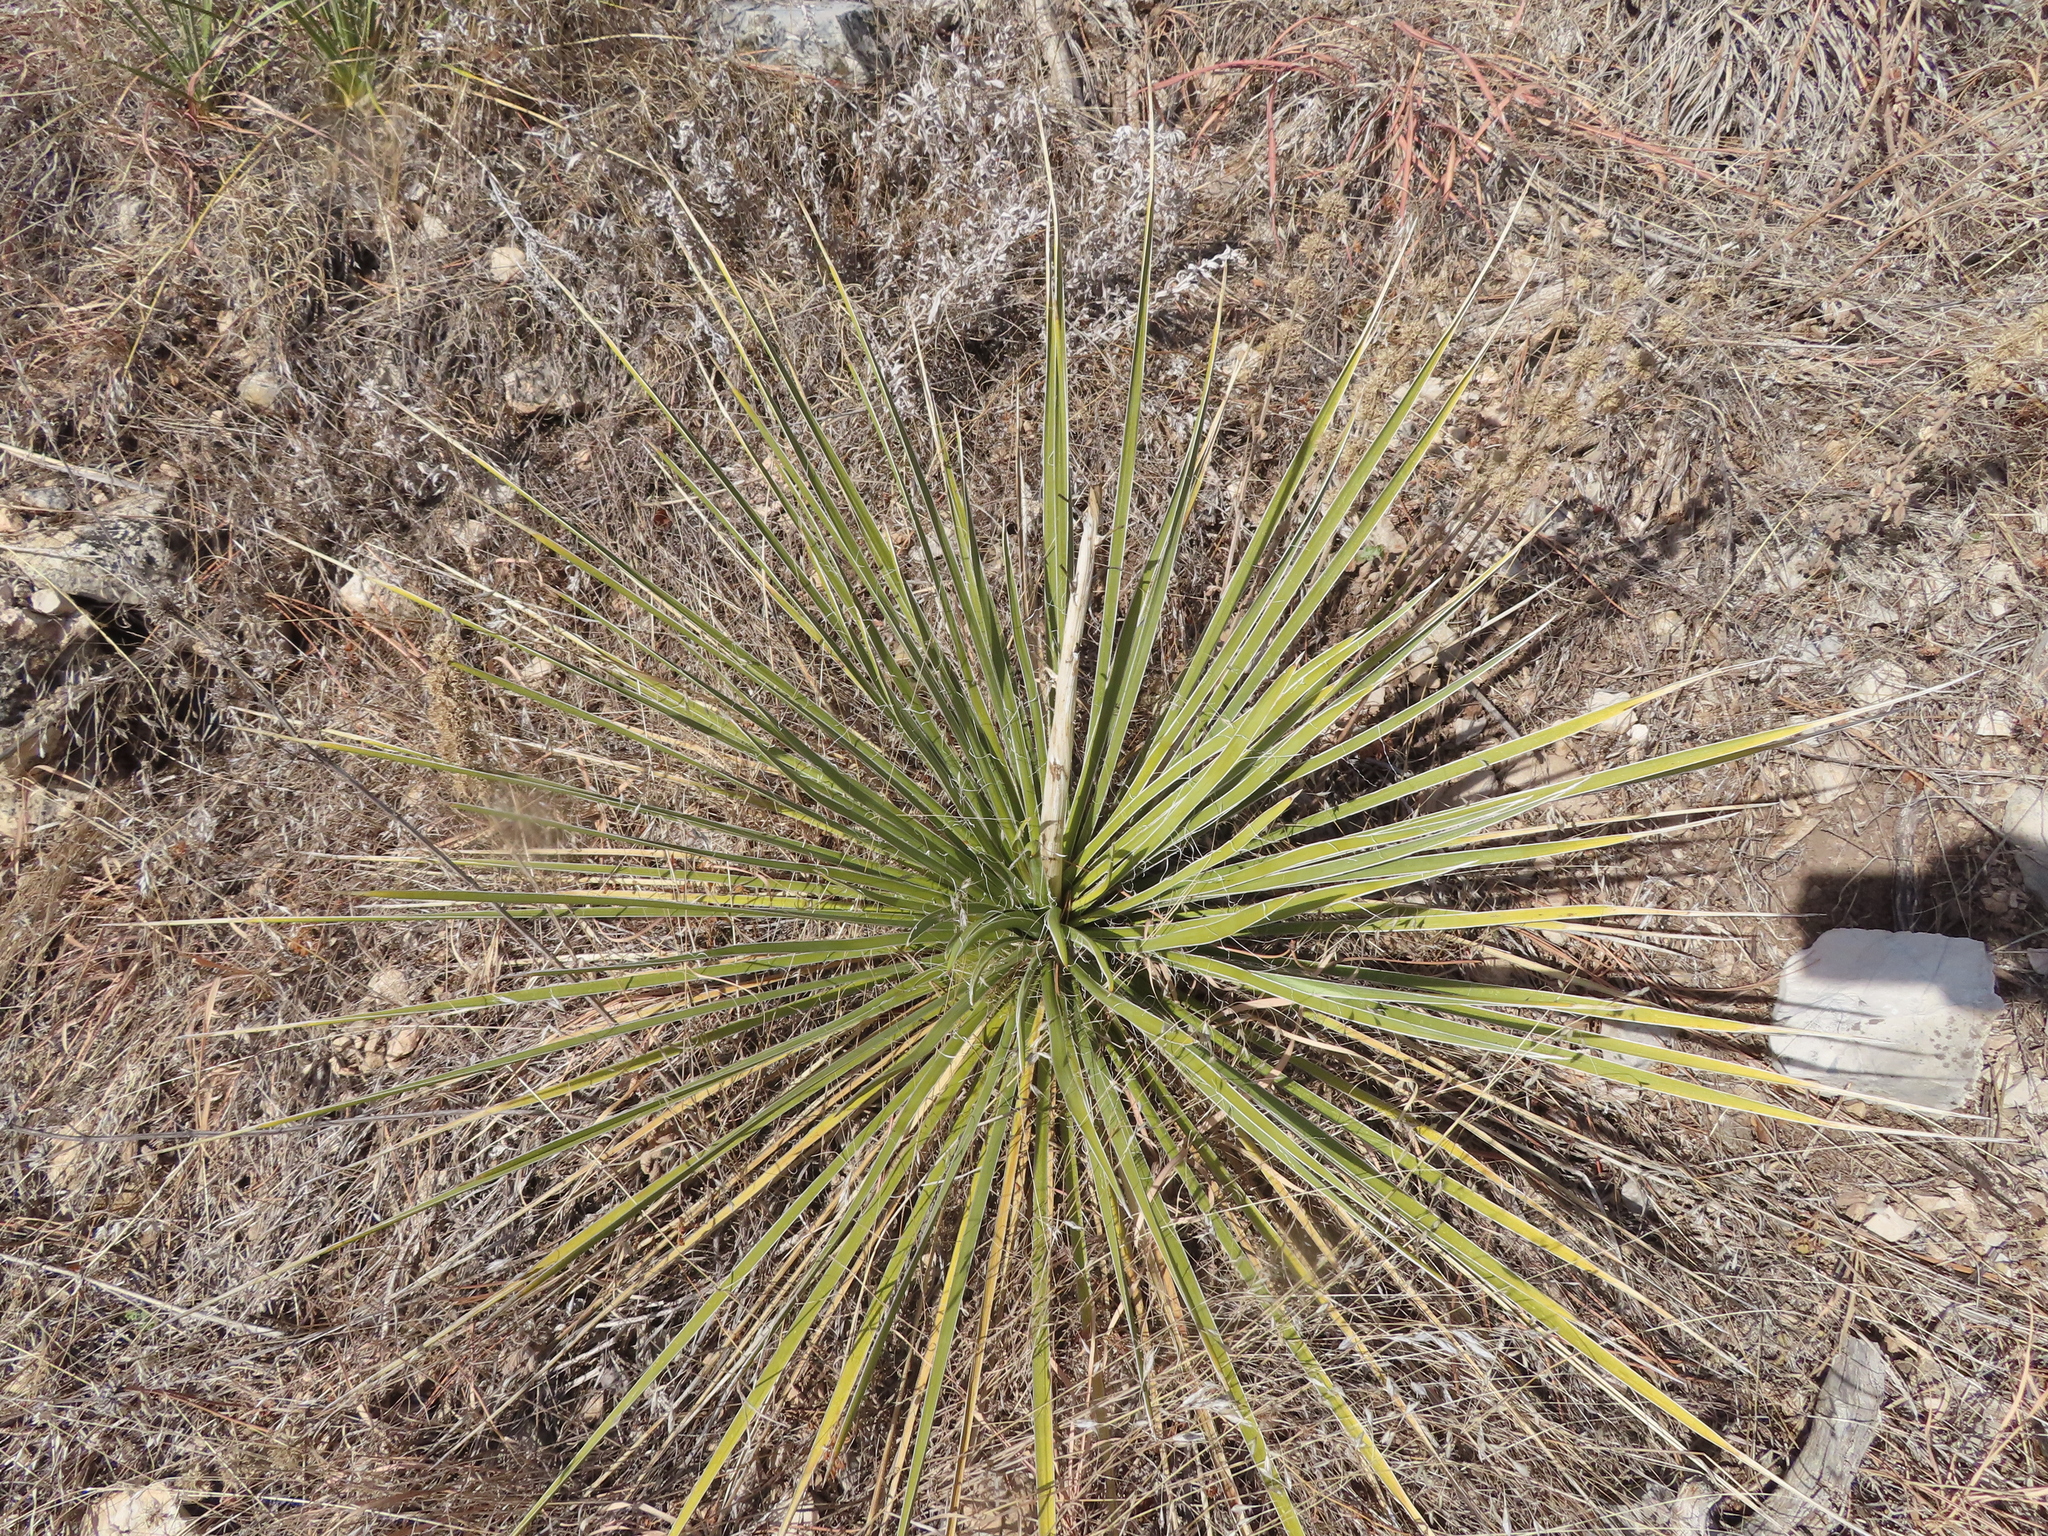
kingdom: Plantae
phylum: Tracheophyta
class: Liliopsida
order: Asparagales
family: Asparagaceae
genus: Yucca
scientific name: Yucca glauca
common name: Great plains yucca
